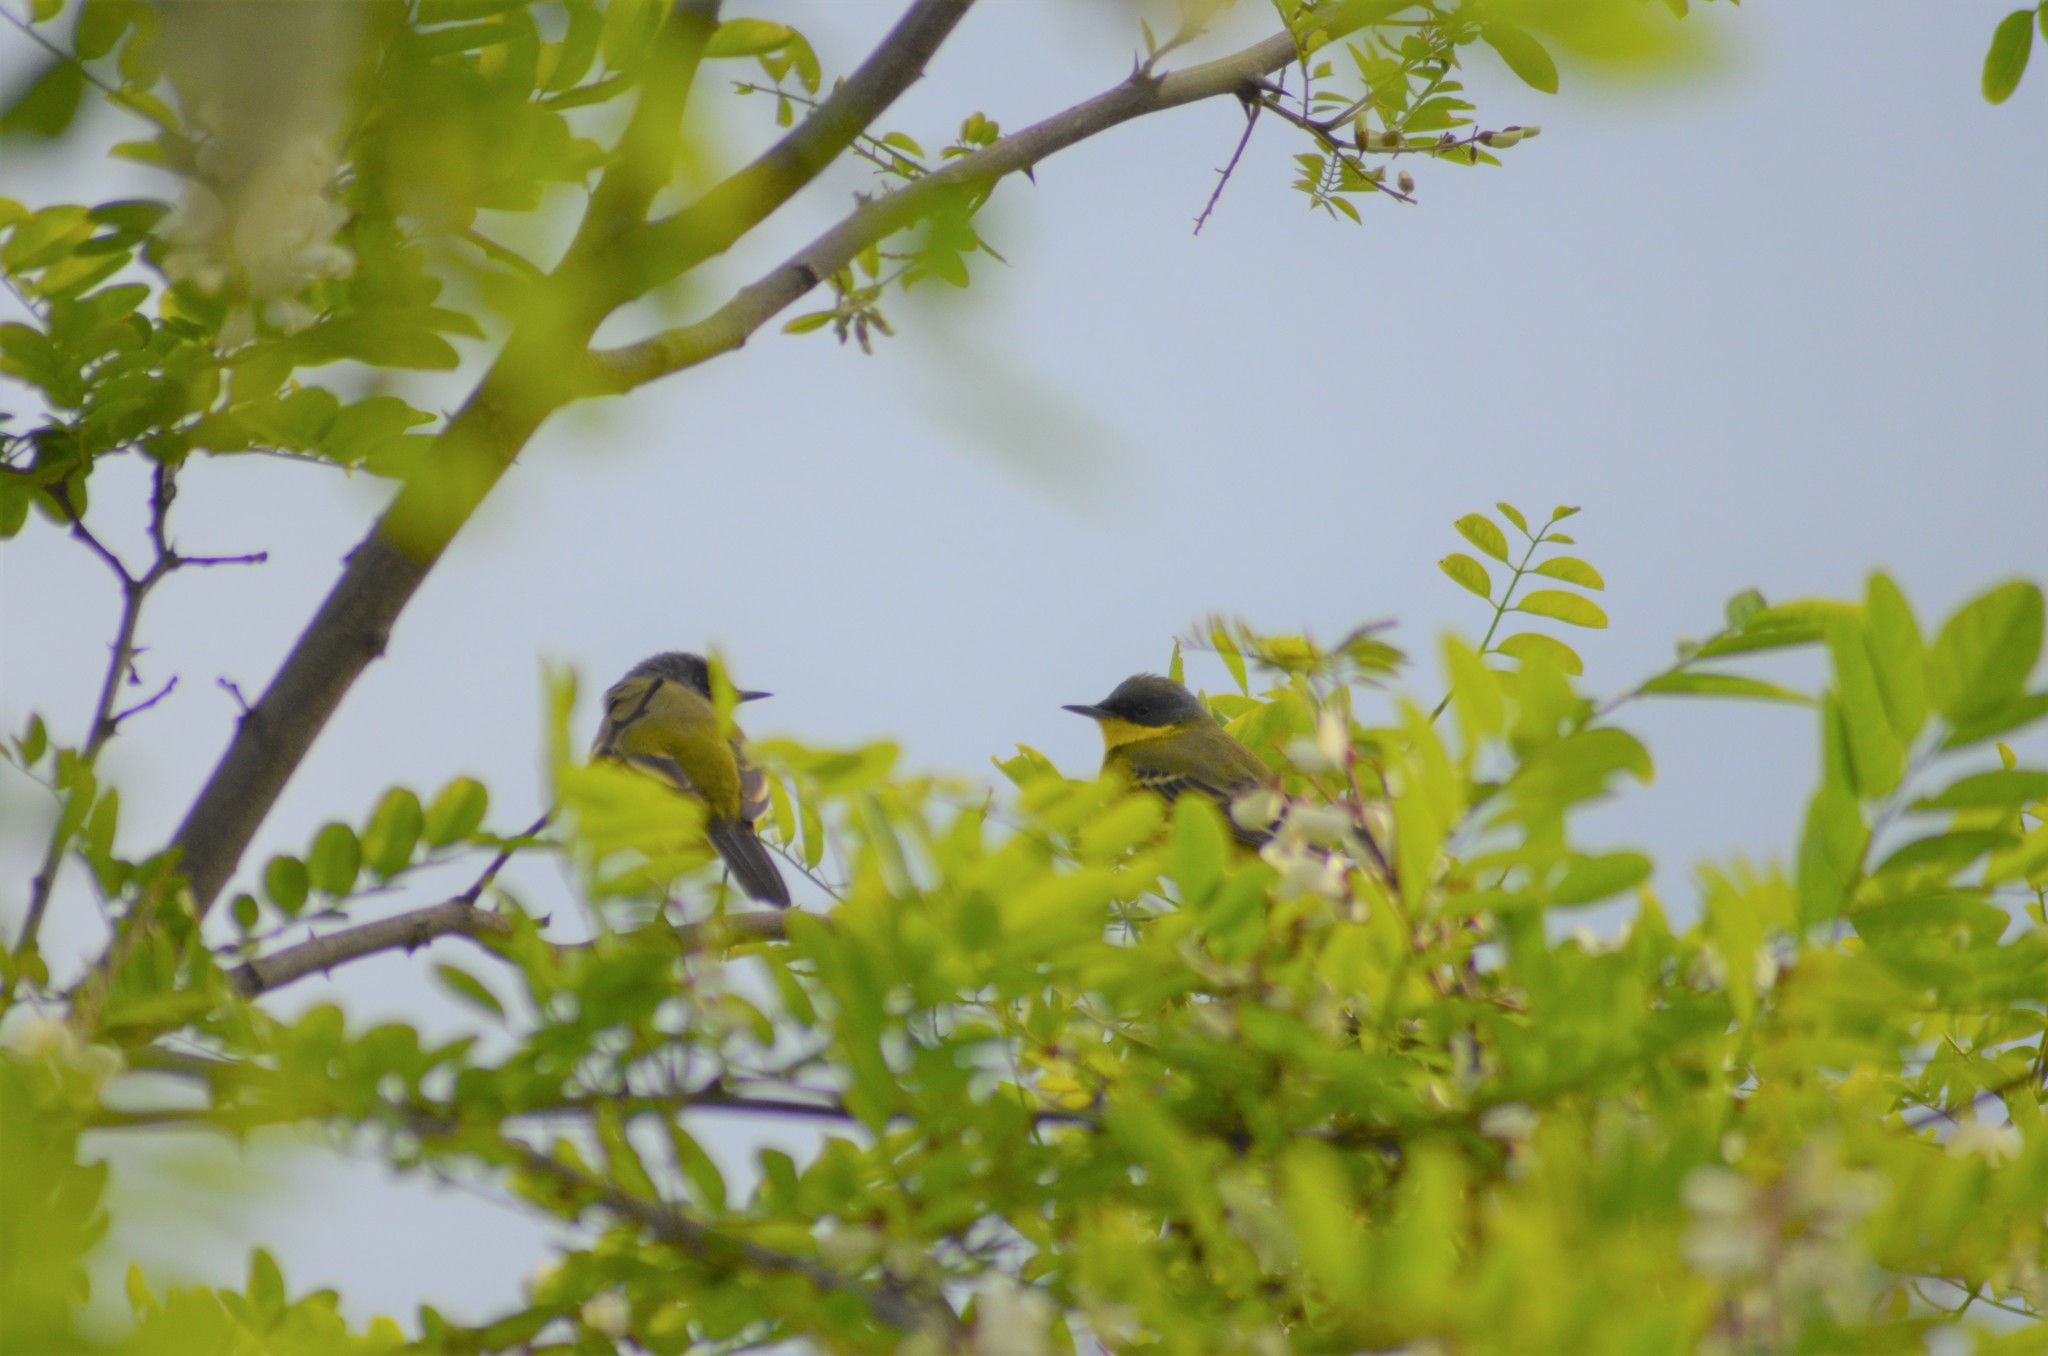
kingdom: Animalia
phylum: Chordata
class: Aves
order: Passeriformes
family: Motacillidae
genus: Motacilla
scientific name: Motacilla flava
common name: Western yellow wagtail
